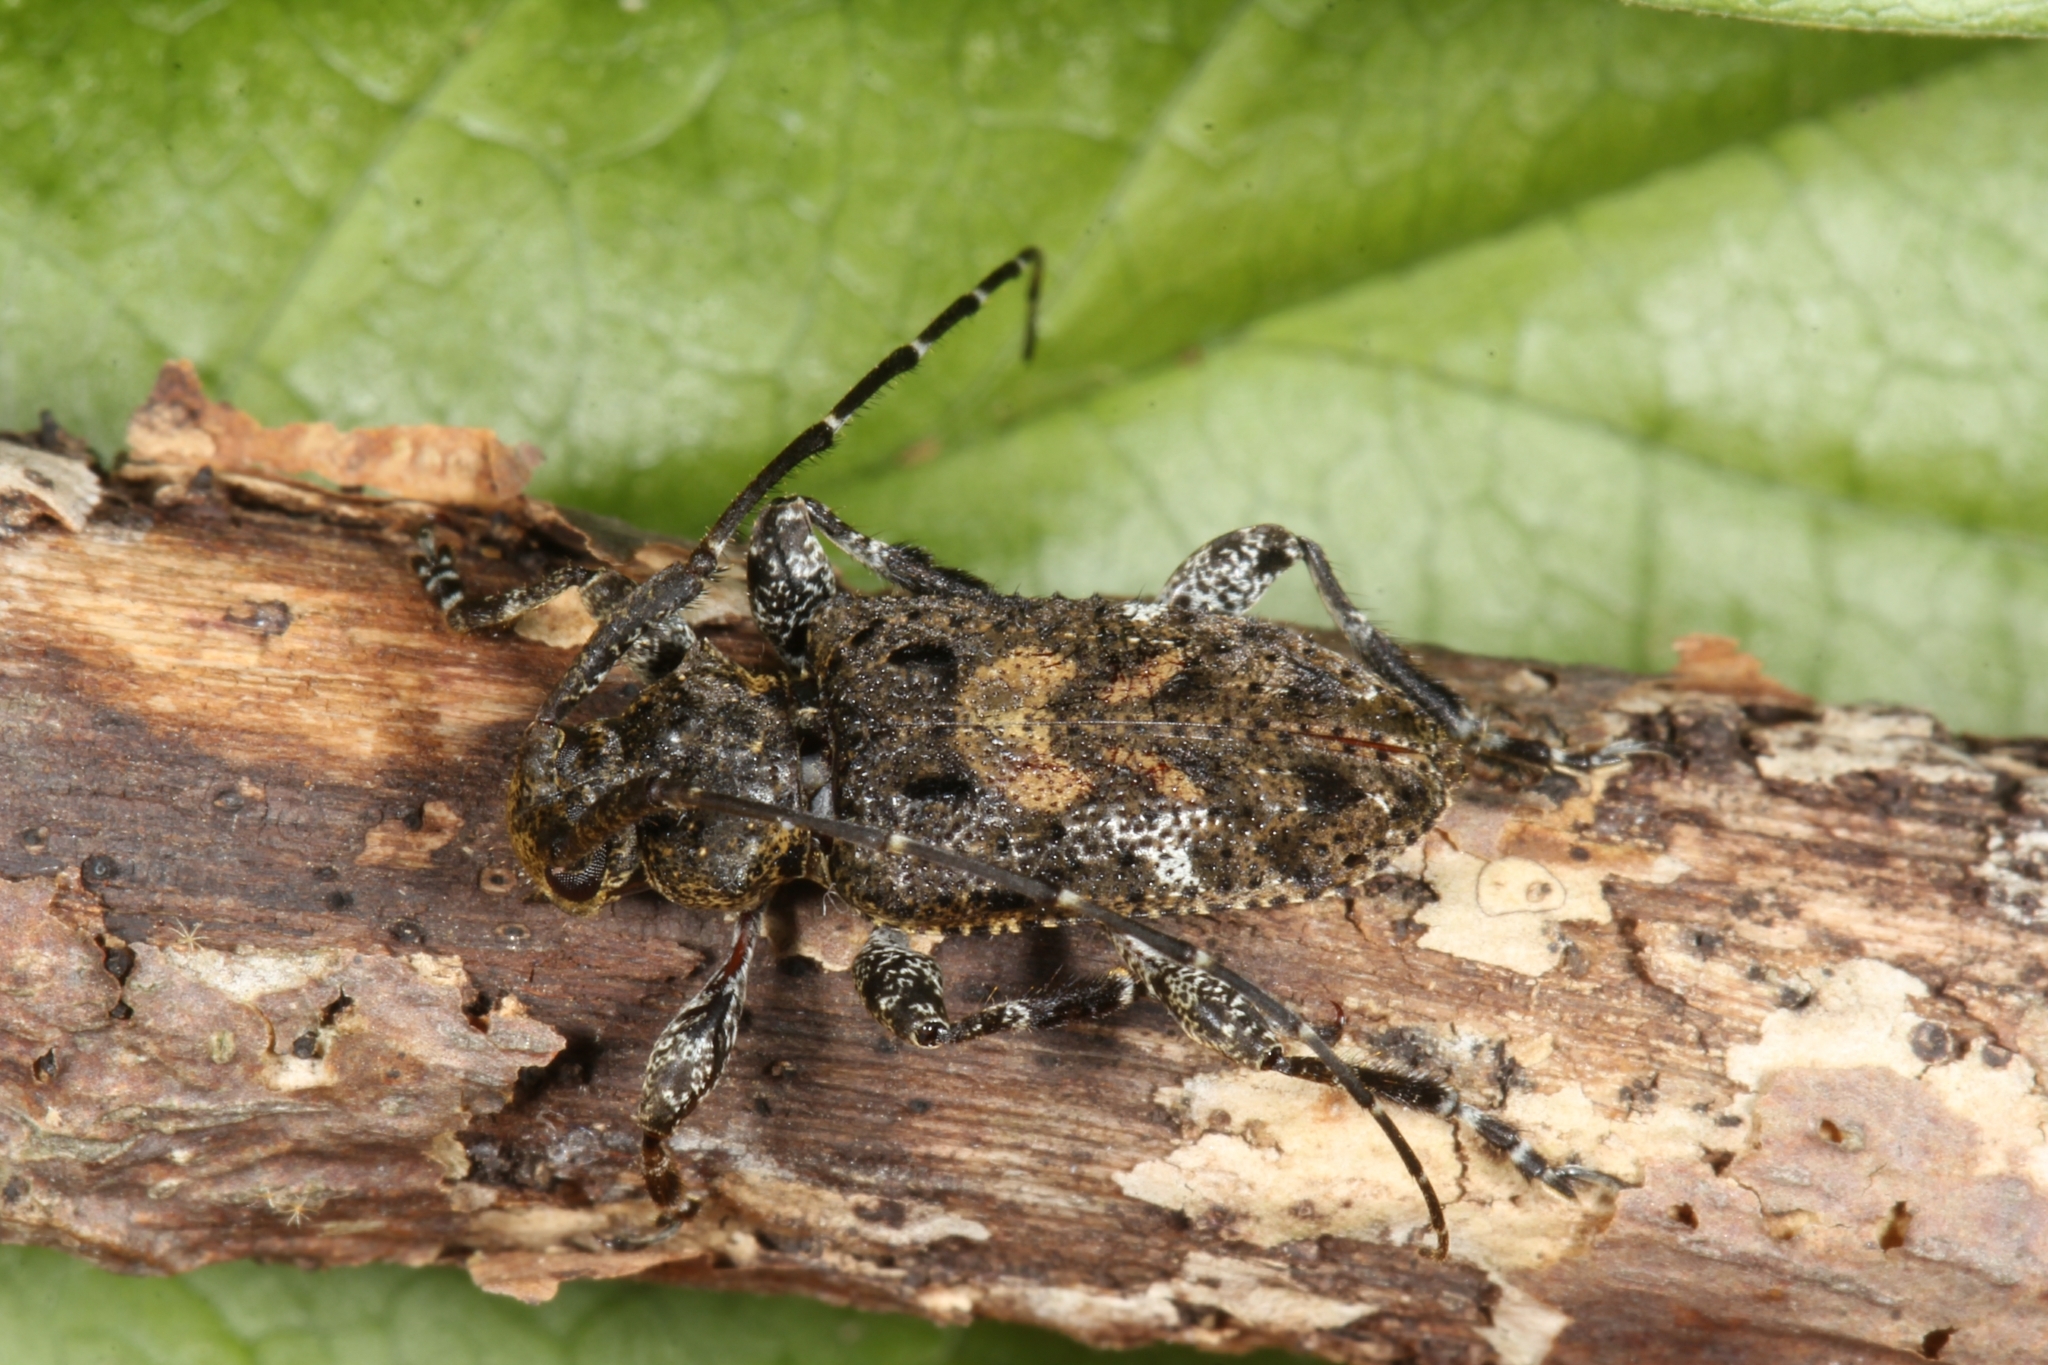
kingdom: Animalia
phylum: Arthropoda
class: Insecta
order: Coleoptera
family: Cerambycidae
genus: Leptocometes
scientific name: Leptocometes barbiscapus
